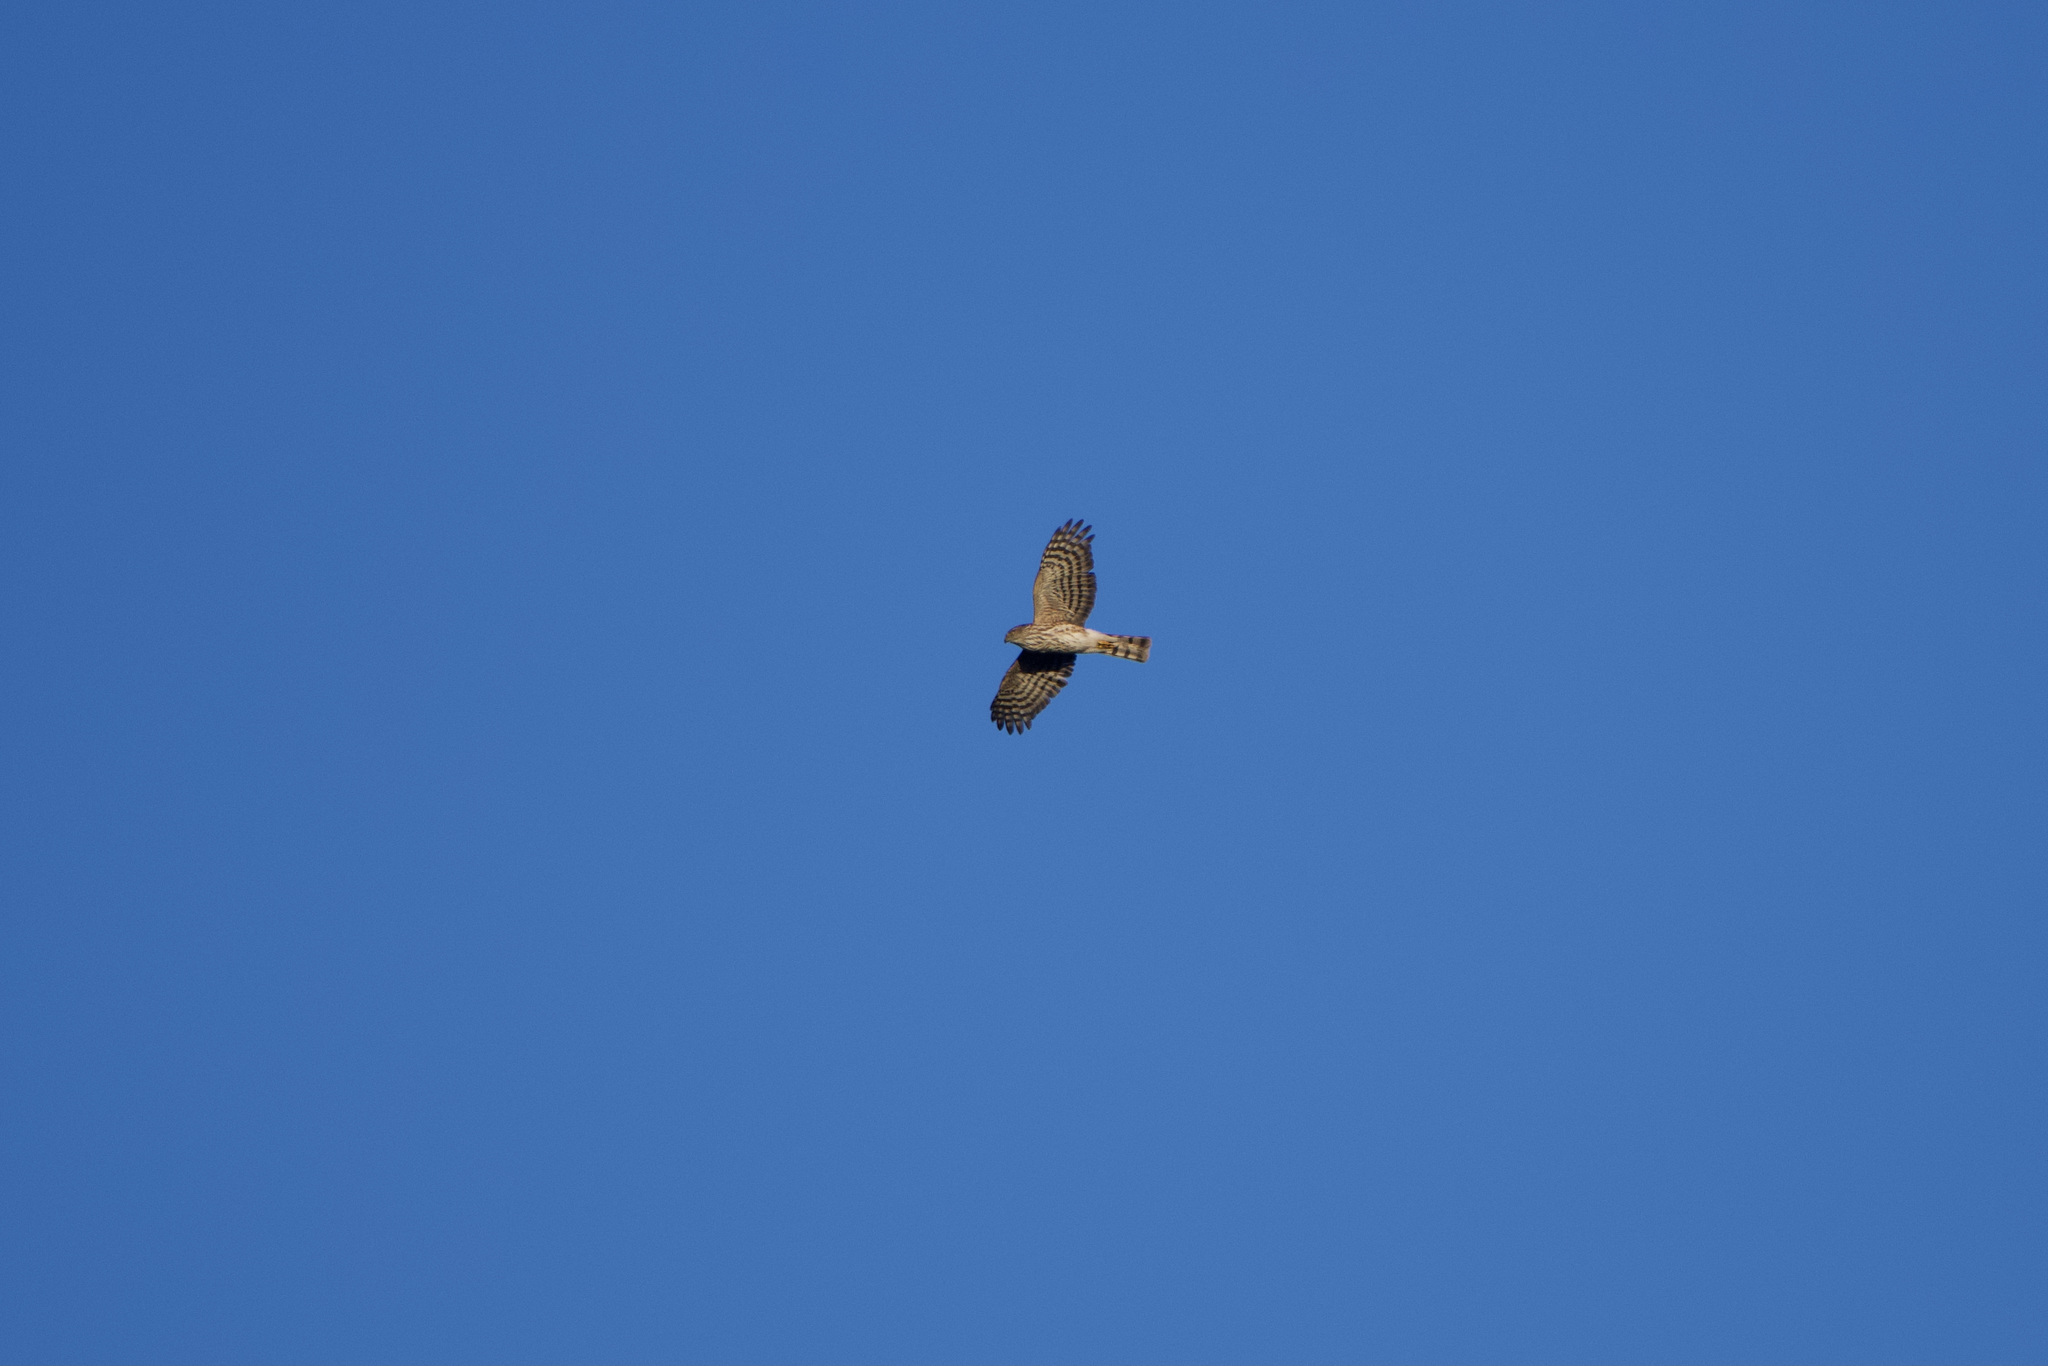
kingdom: Animalia
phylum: Chordata
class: Aves
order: Accipitriformes
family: Accipitridae
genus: Accipiter
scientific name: Accipiter striatus
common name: Sharp-shinned hawk
